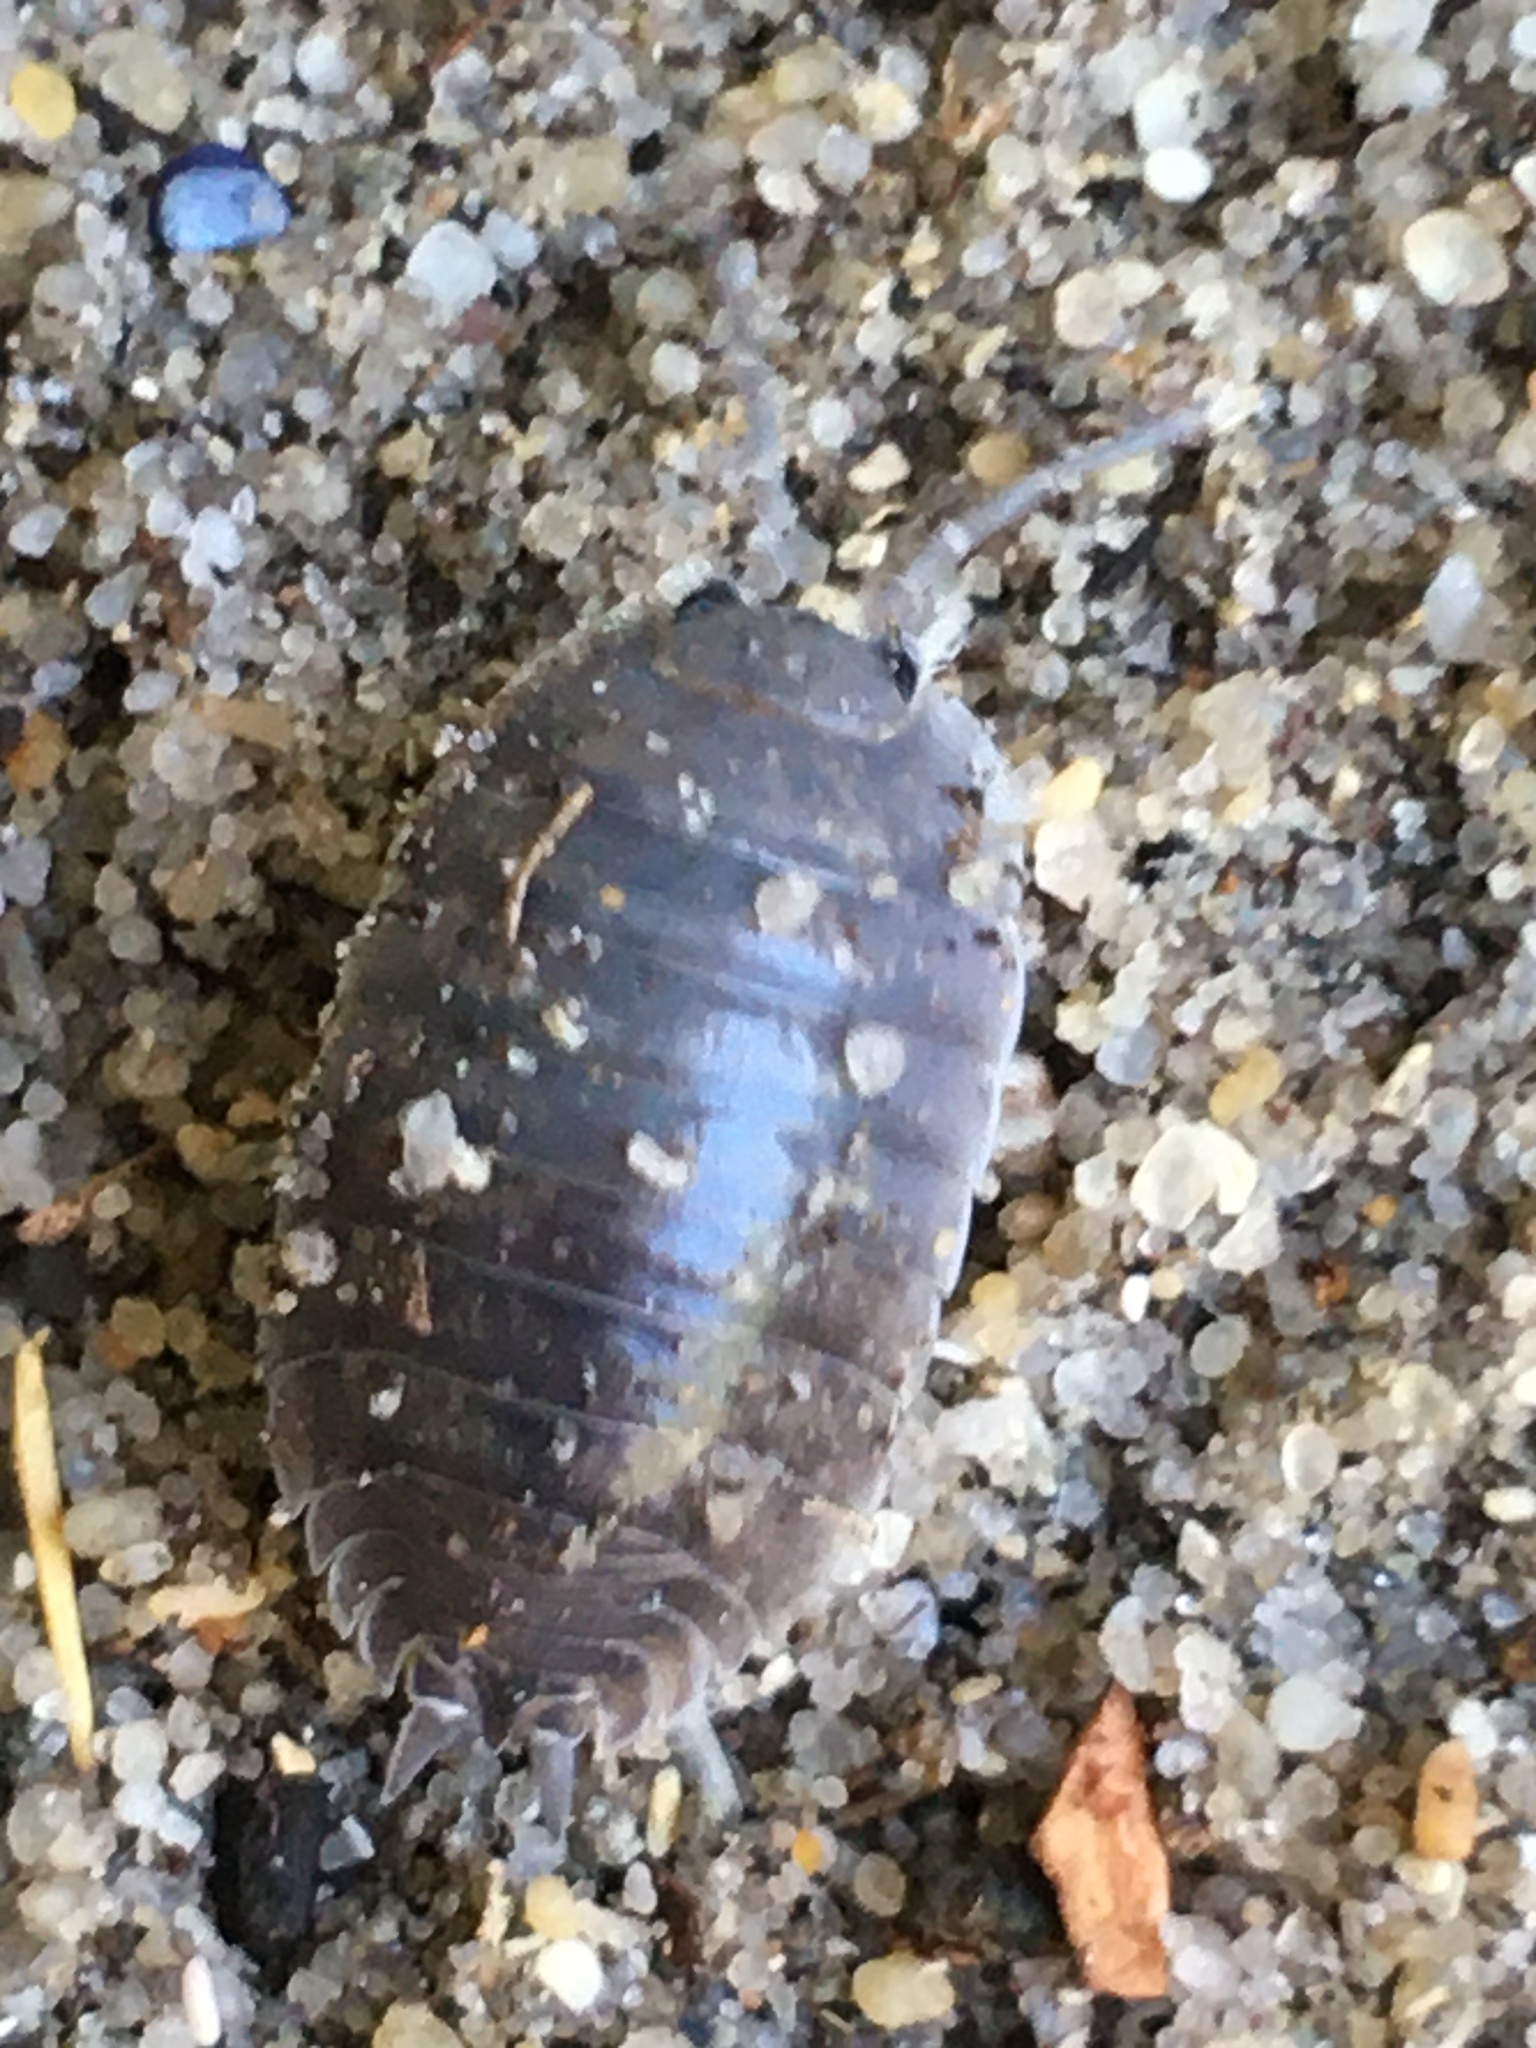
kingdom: Animalia
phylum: Arthropoda
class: Malacostraca
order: Isopoda
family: Porcellionidae
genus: Porcellio
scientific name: Porcellio laevis
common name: Swift woodlouse
